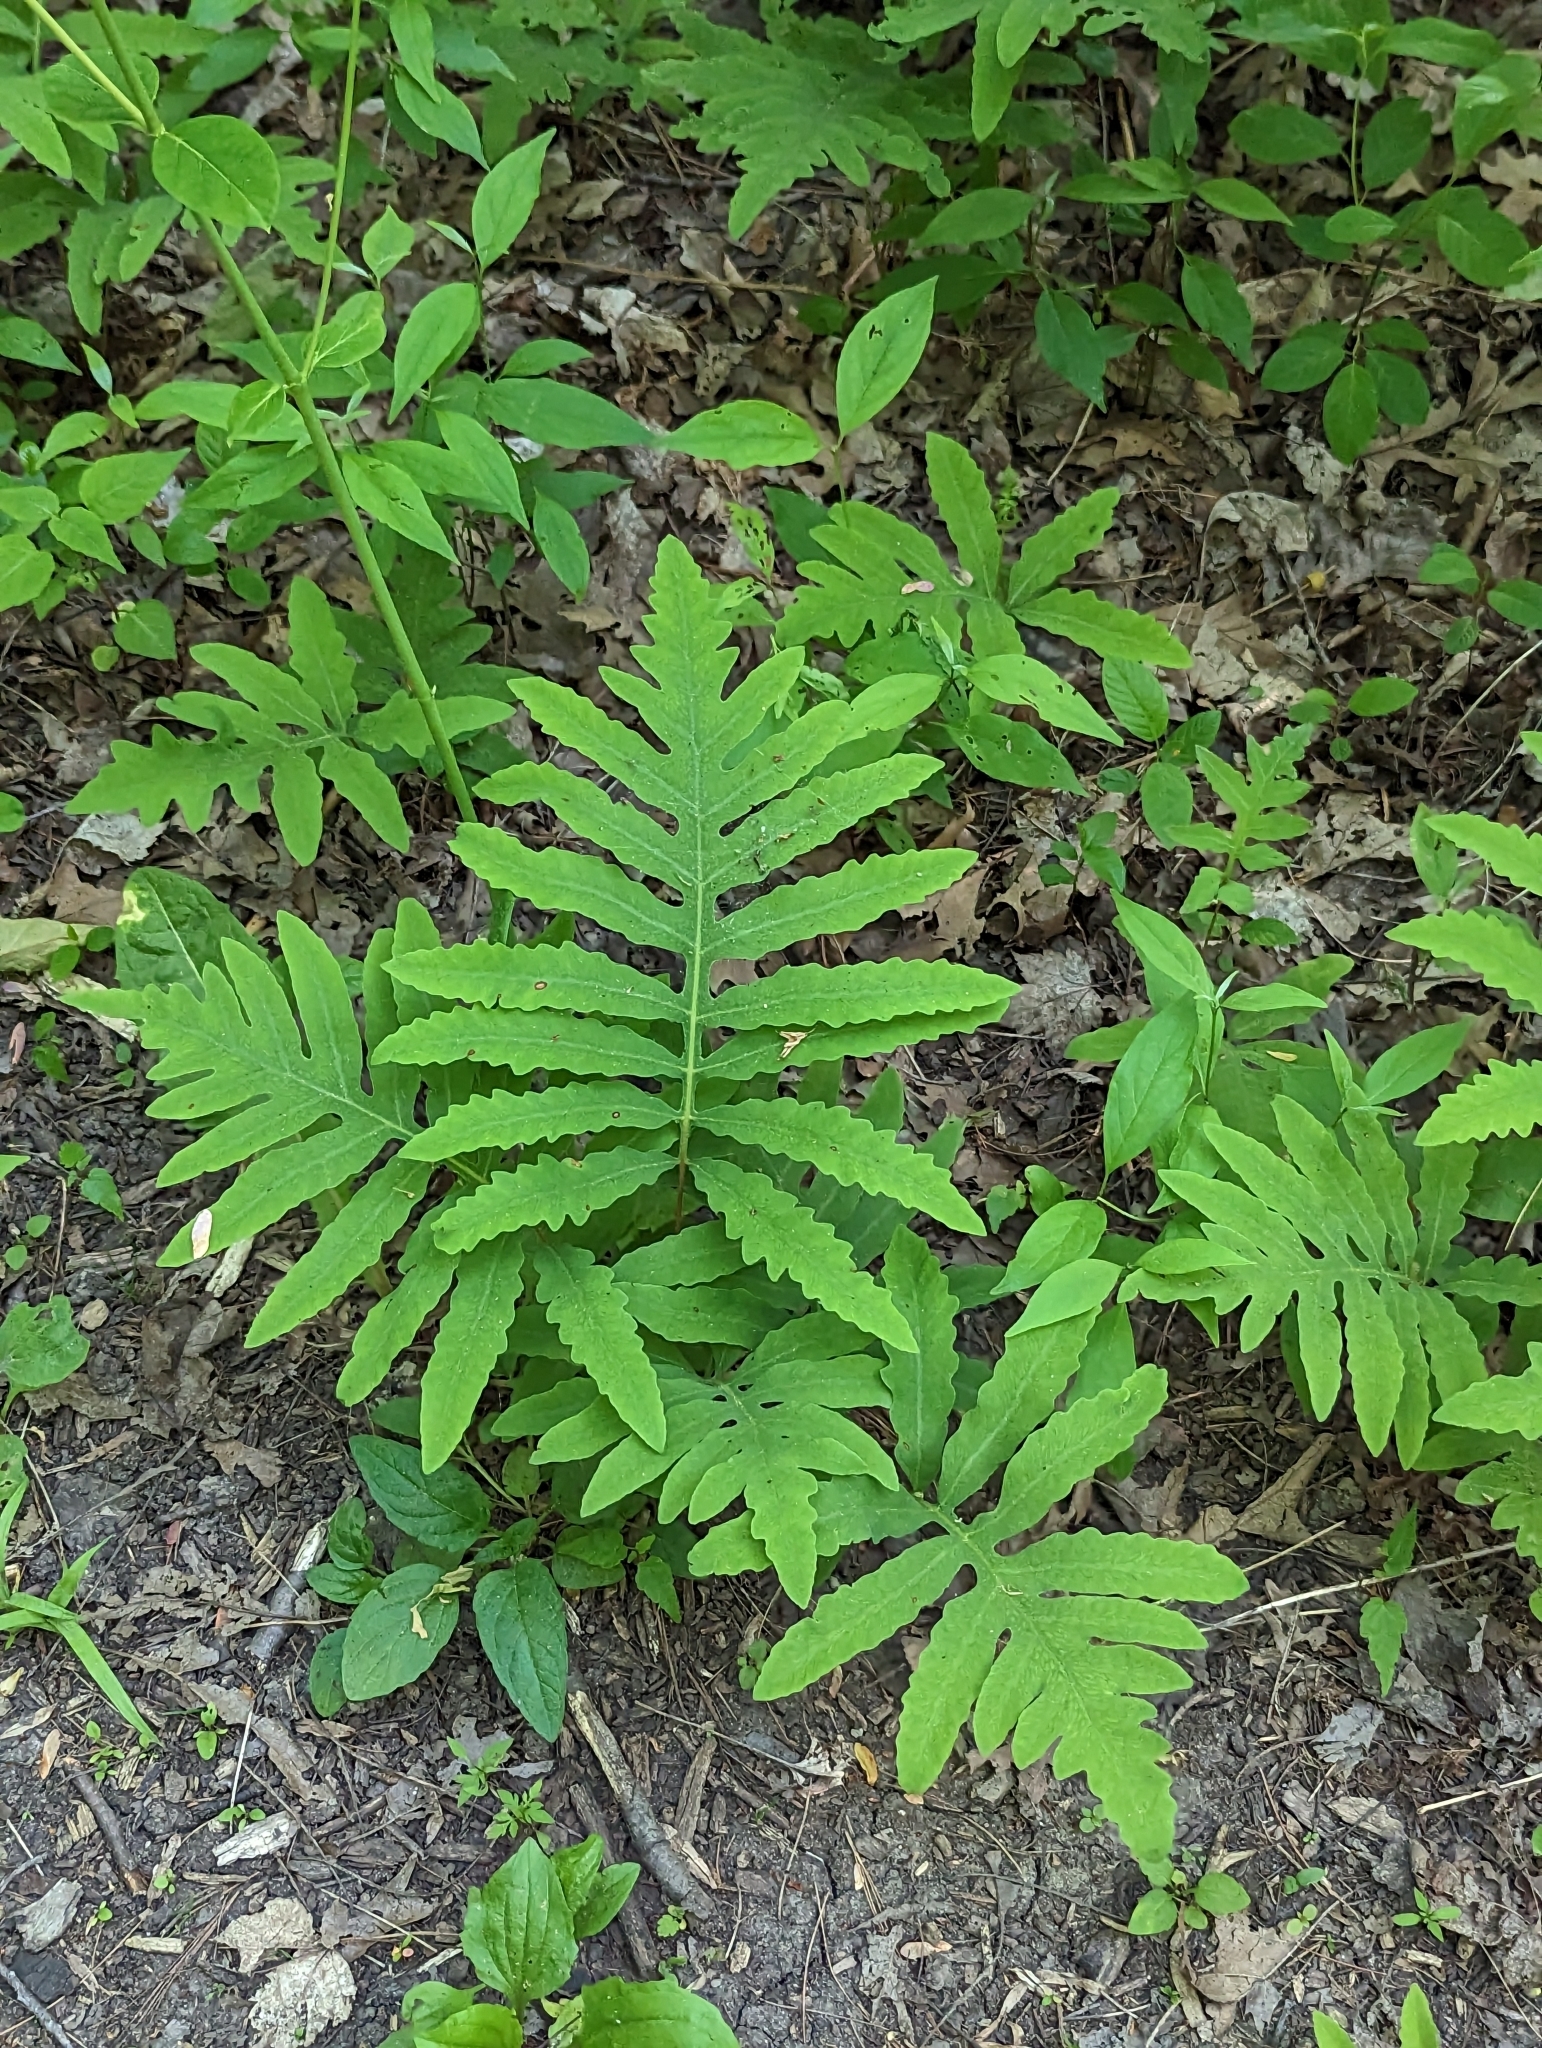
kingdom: Plantae
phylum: Tracheophyta
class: Polypodiopsida
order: Polypodiales
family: Onocleaceae
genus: Onoclea
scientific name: Onoclea sensibilis
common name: Sensitive fern
